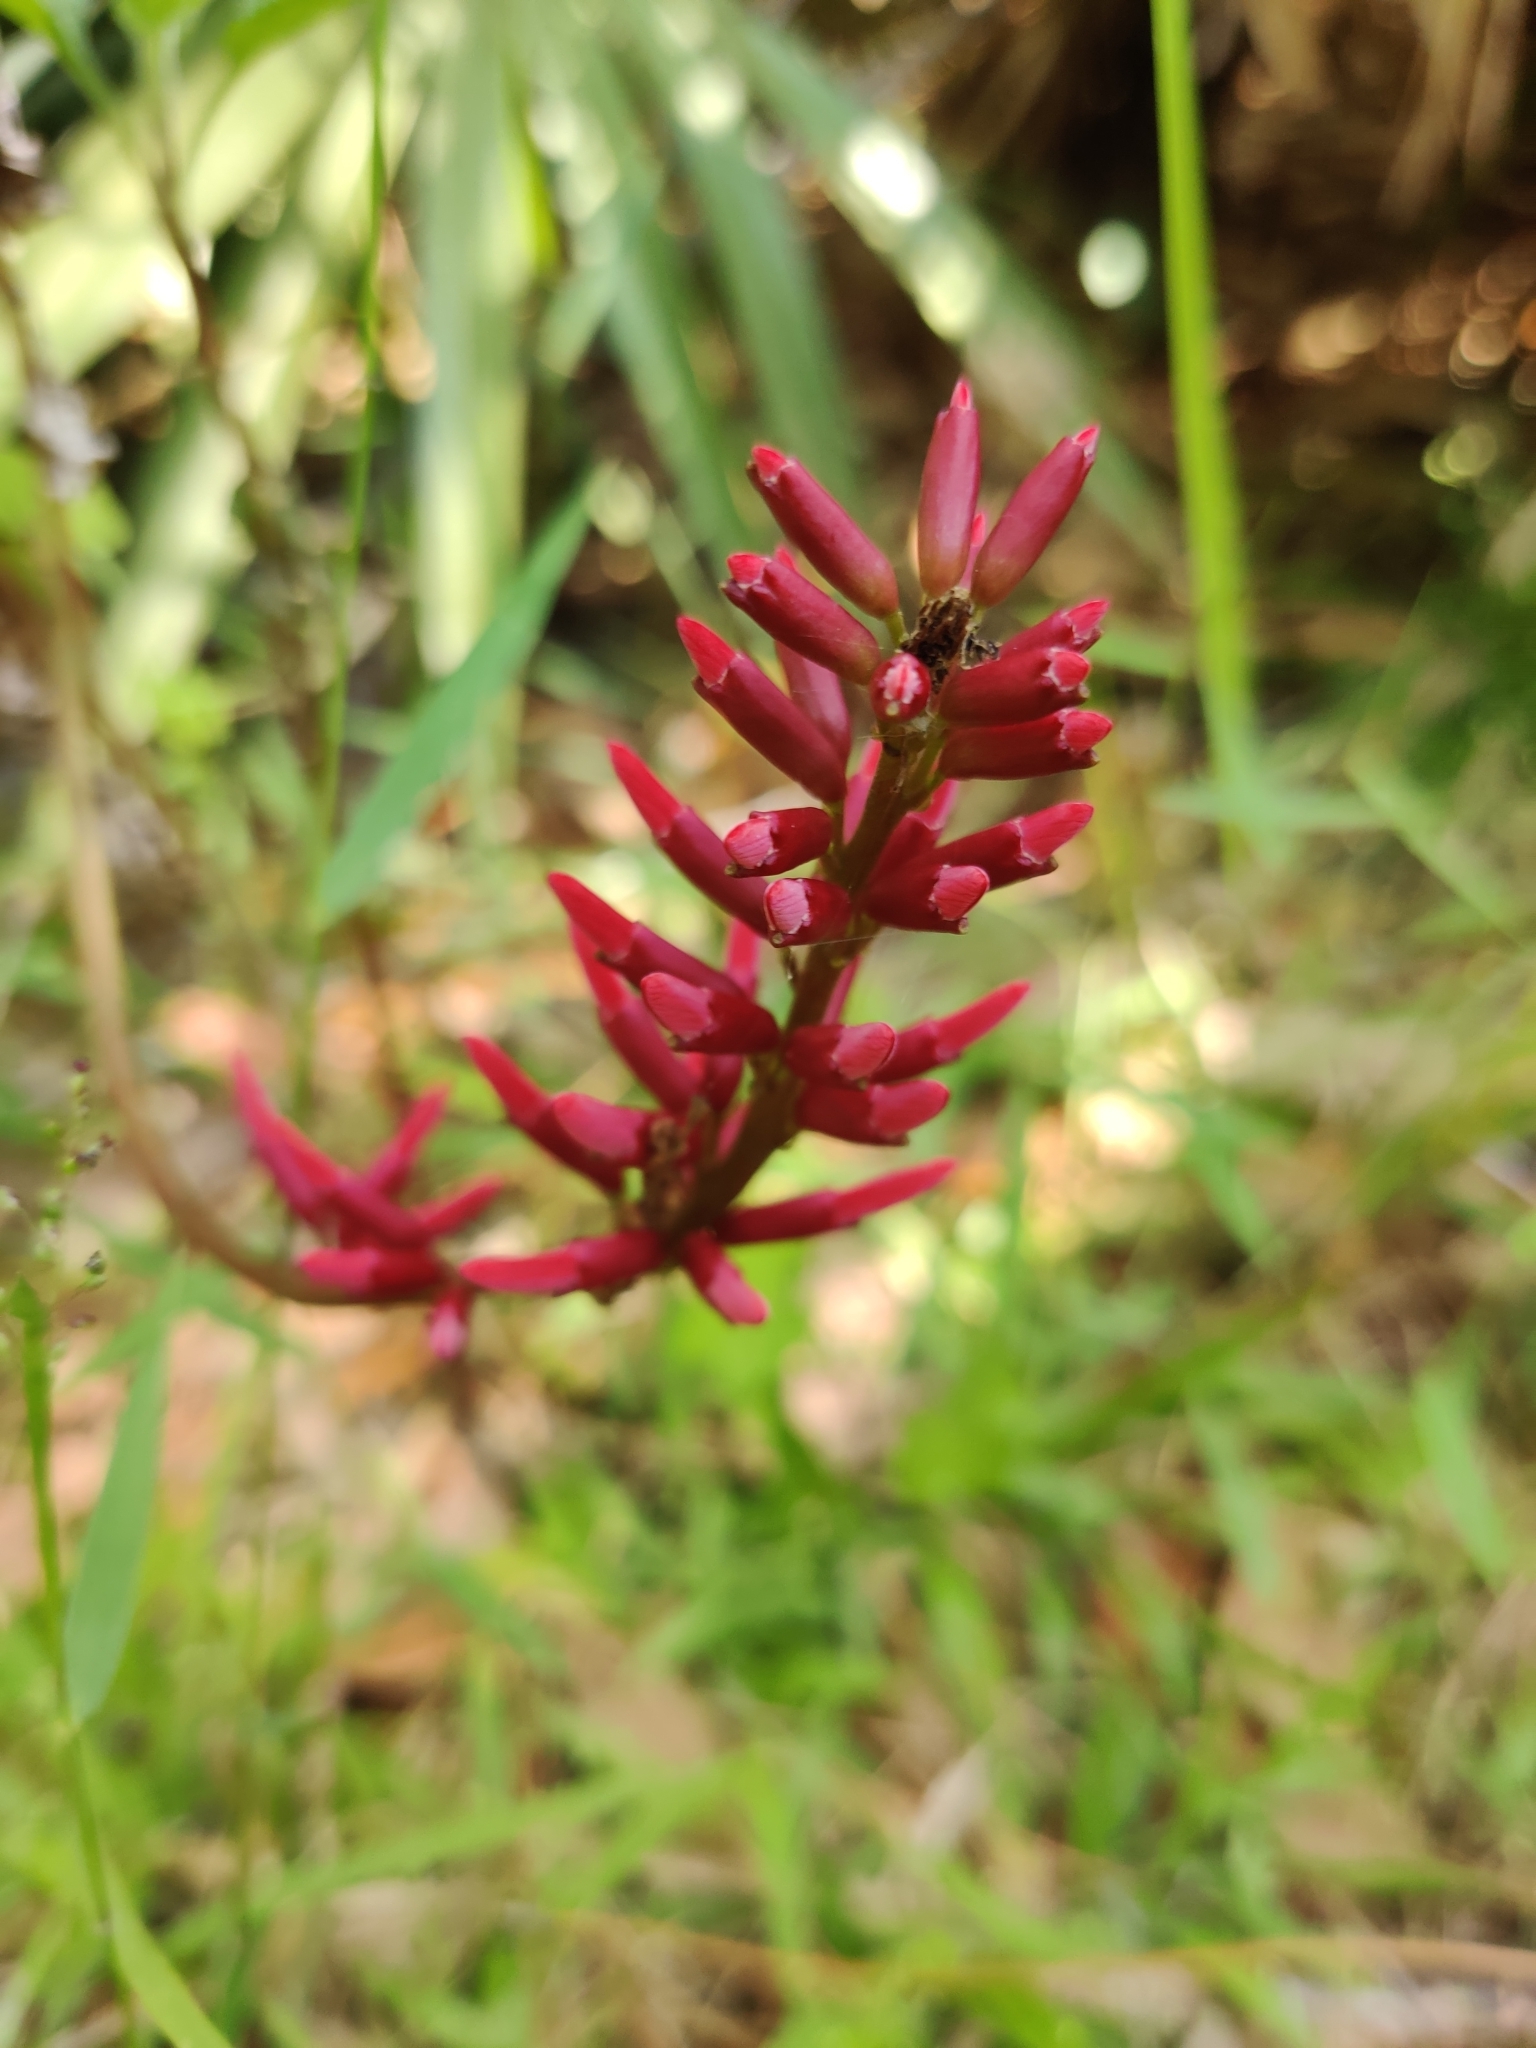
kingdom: Plantae
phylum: Tracheophyta
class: Magnoliopsida
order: Fabales
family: Fabaceae
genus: Erythrina
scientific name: Erythrina herbacea
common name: Coral-bean
